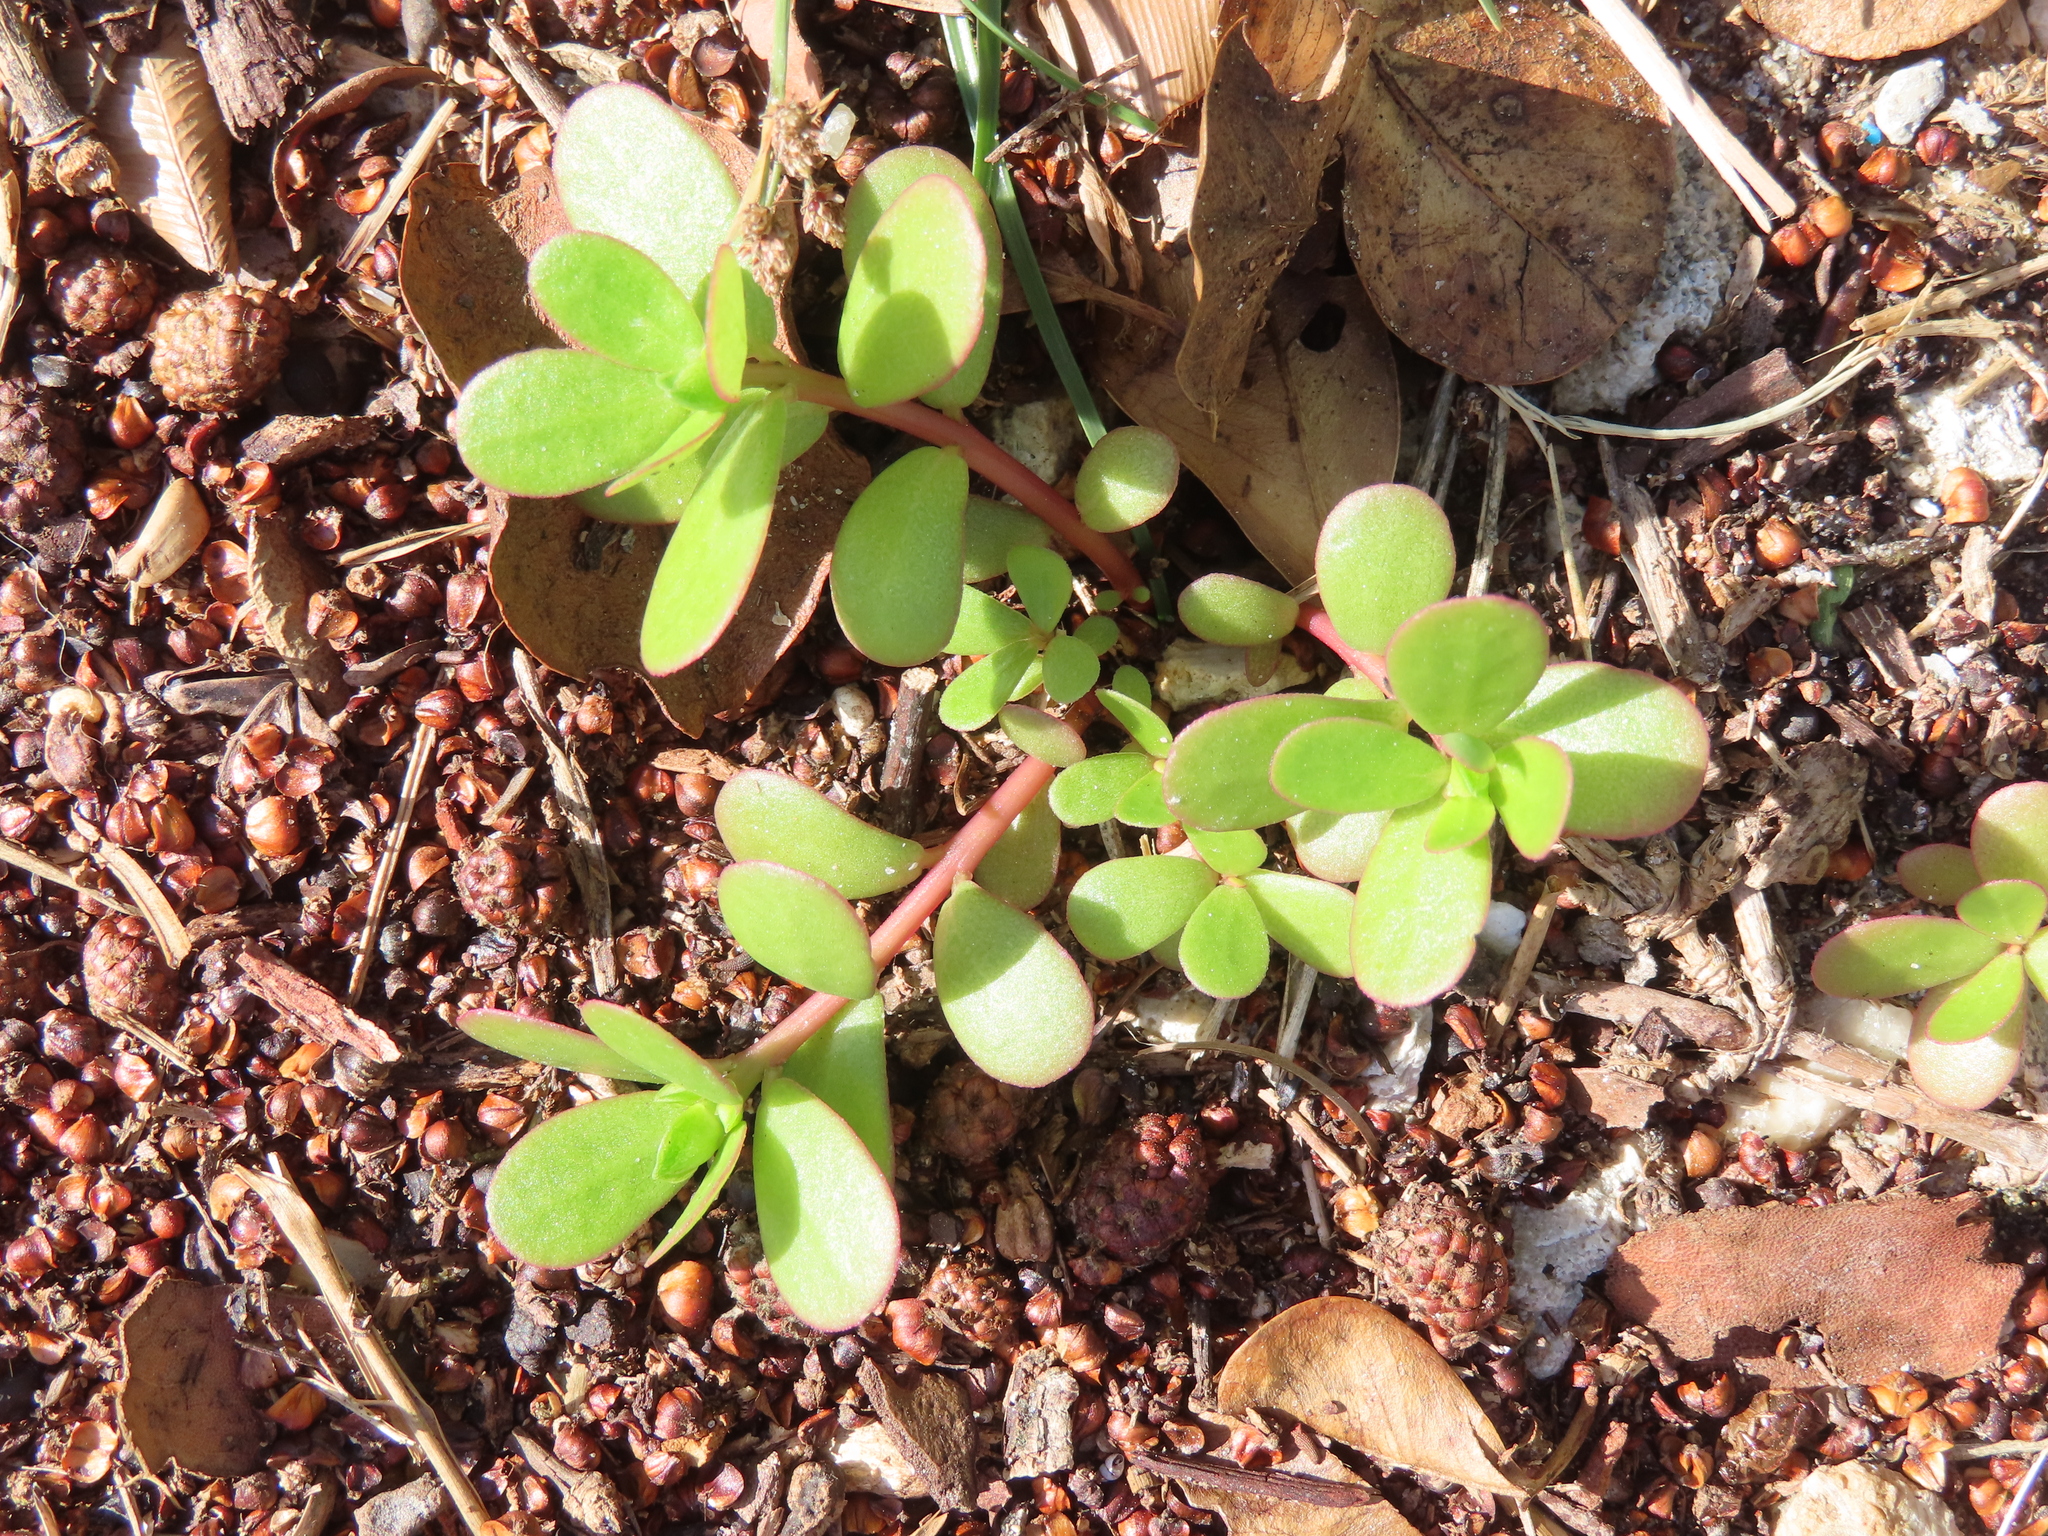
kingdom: Plantae
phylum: Tracheophyta
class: Magnoliopsida
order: Caryophyllales
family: Portulacaceae
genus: Portulaca
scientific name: Portulaca oleracea
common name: Common purslane
